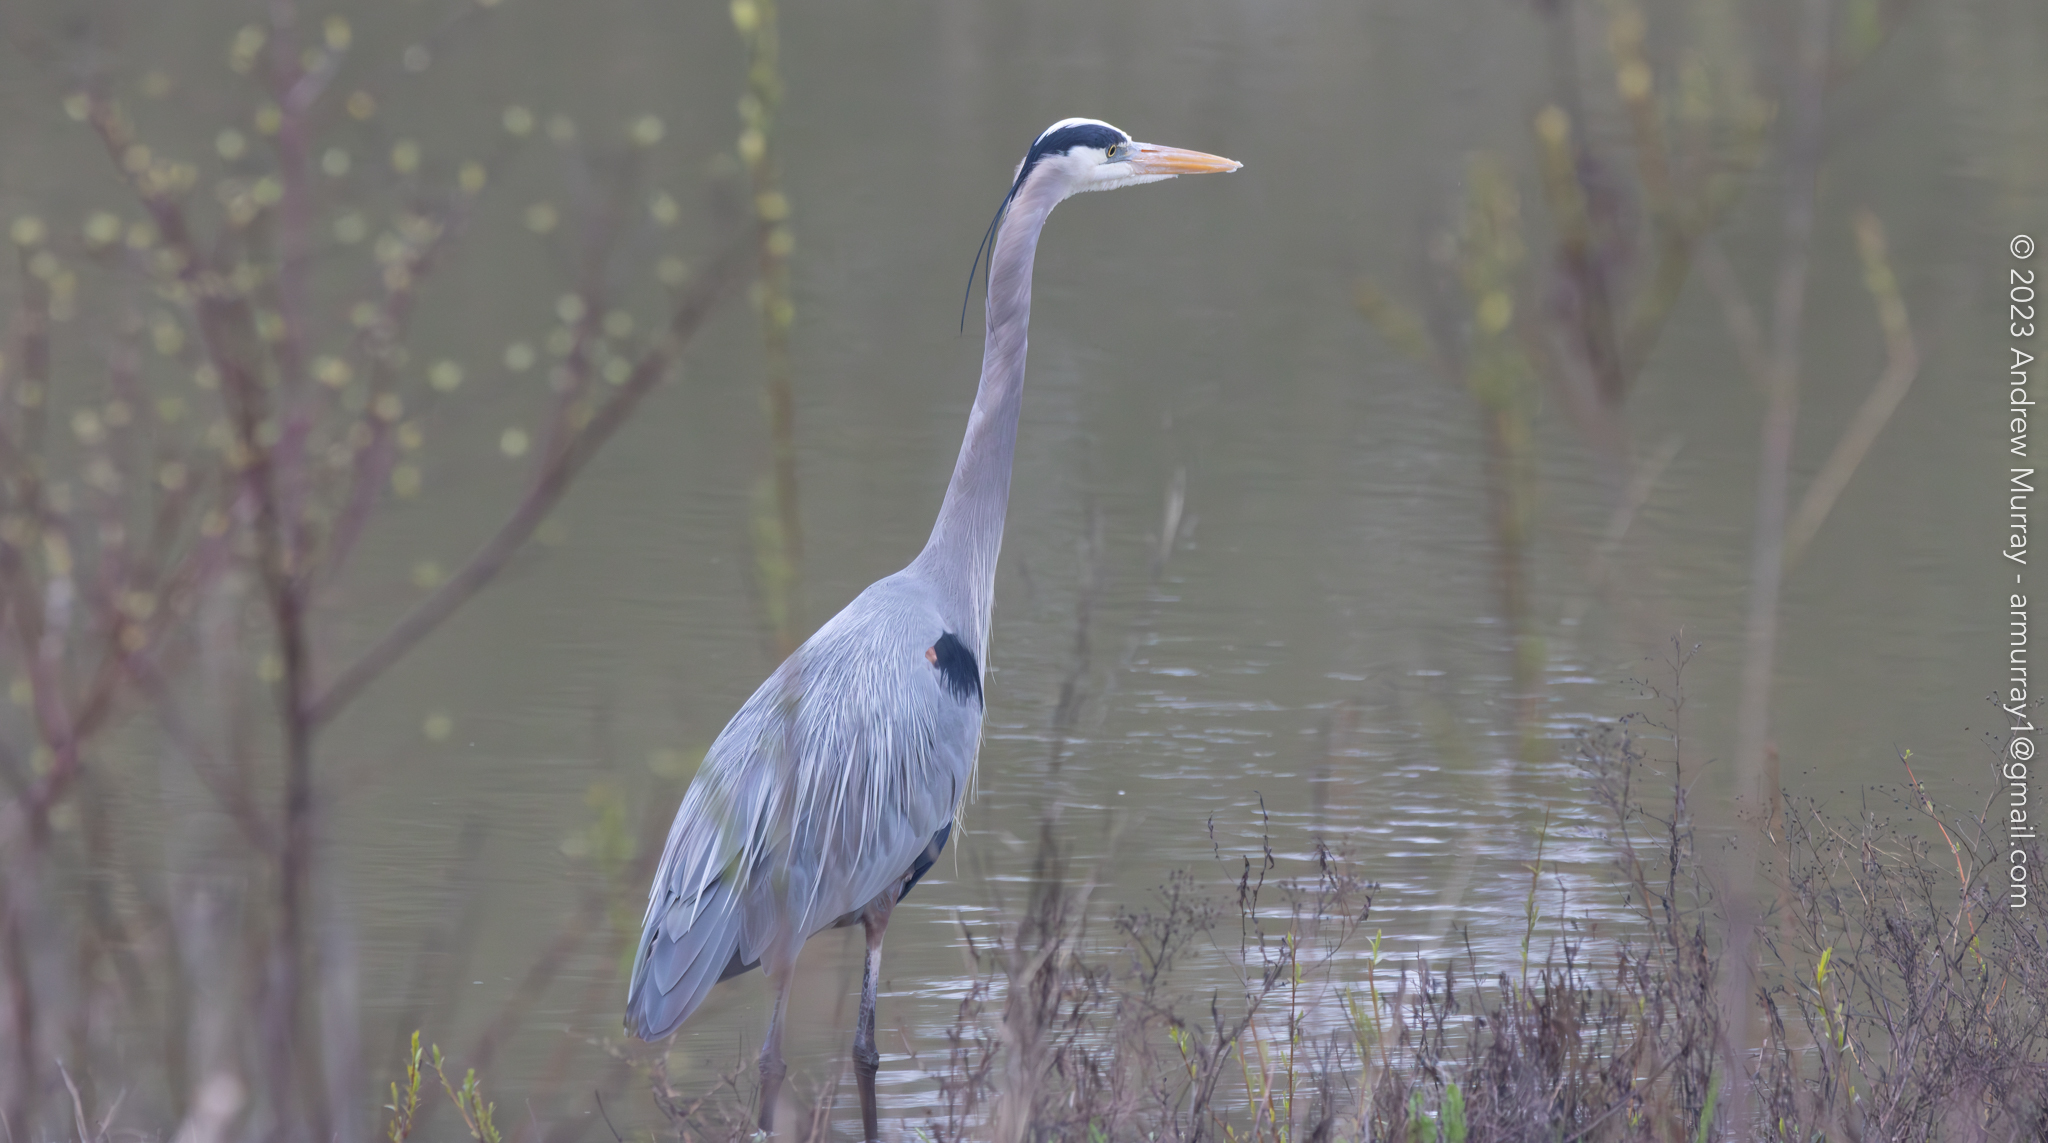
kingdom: Animalia
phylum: Chordata
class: Aves
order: Pelecaniformes
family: Ardeidae
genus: Ardea
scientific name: Ardea herodias
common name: Great blue heron
